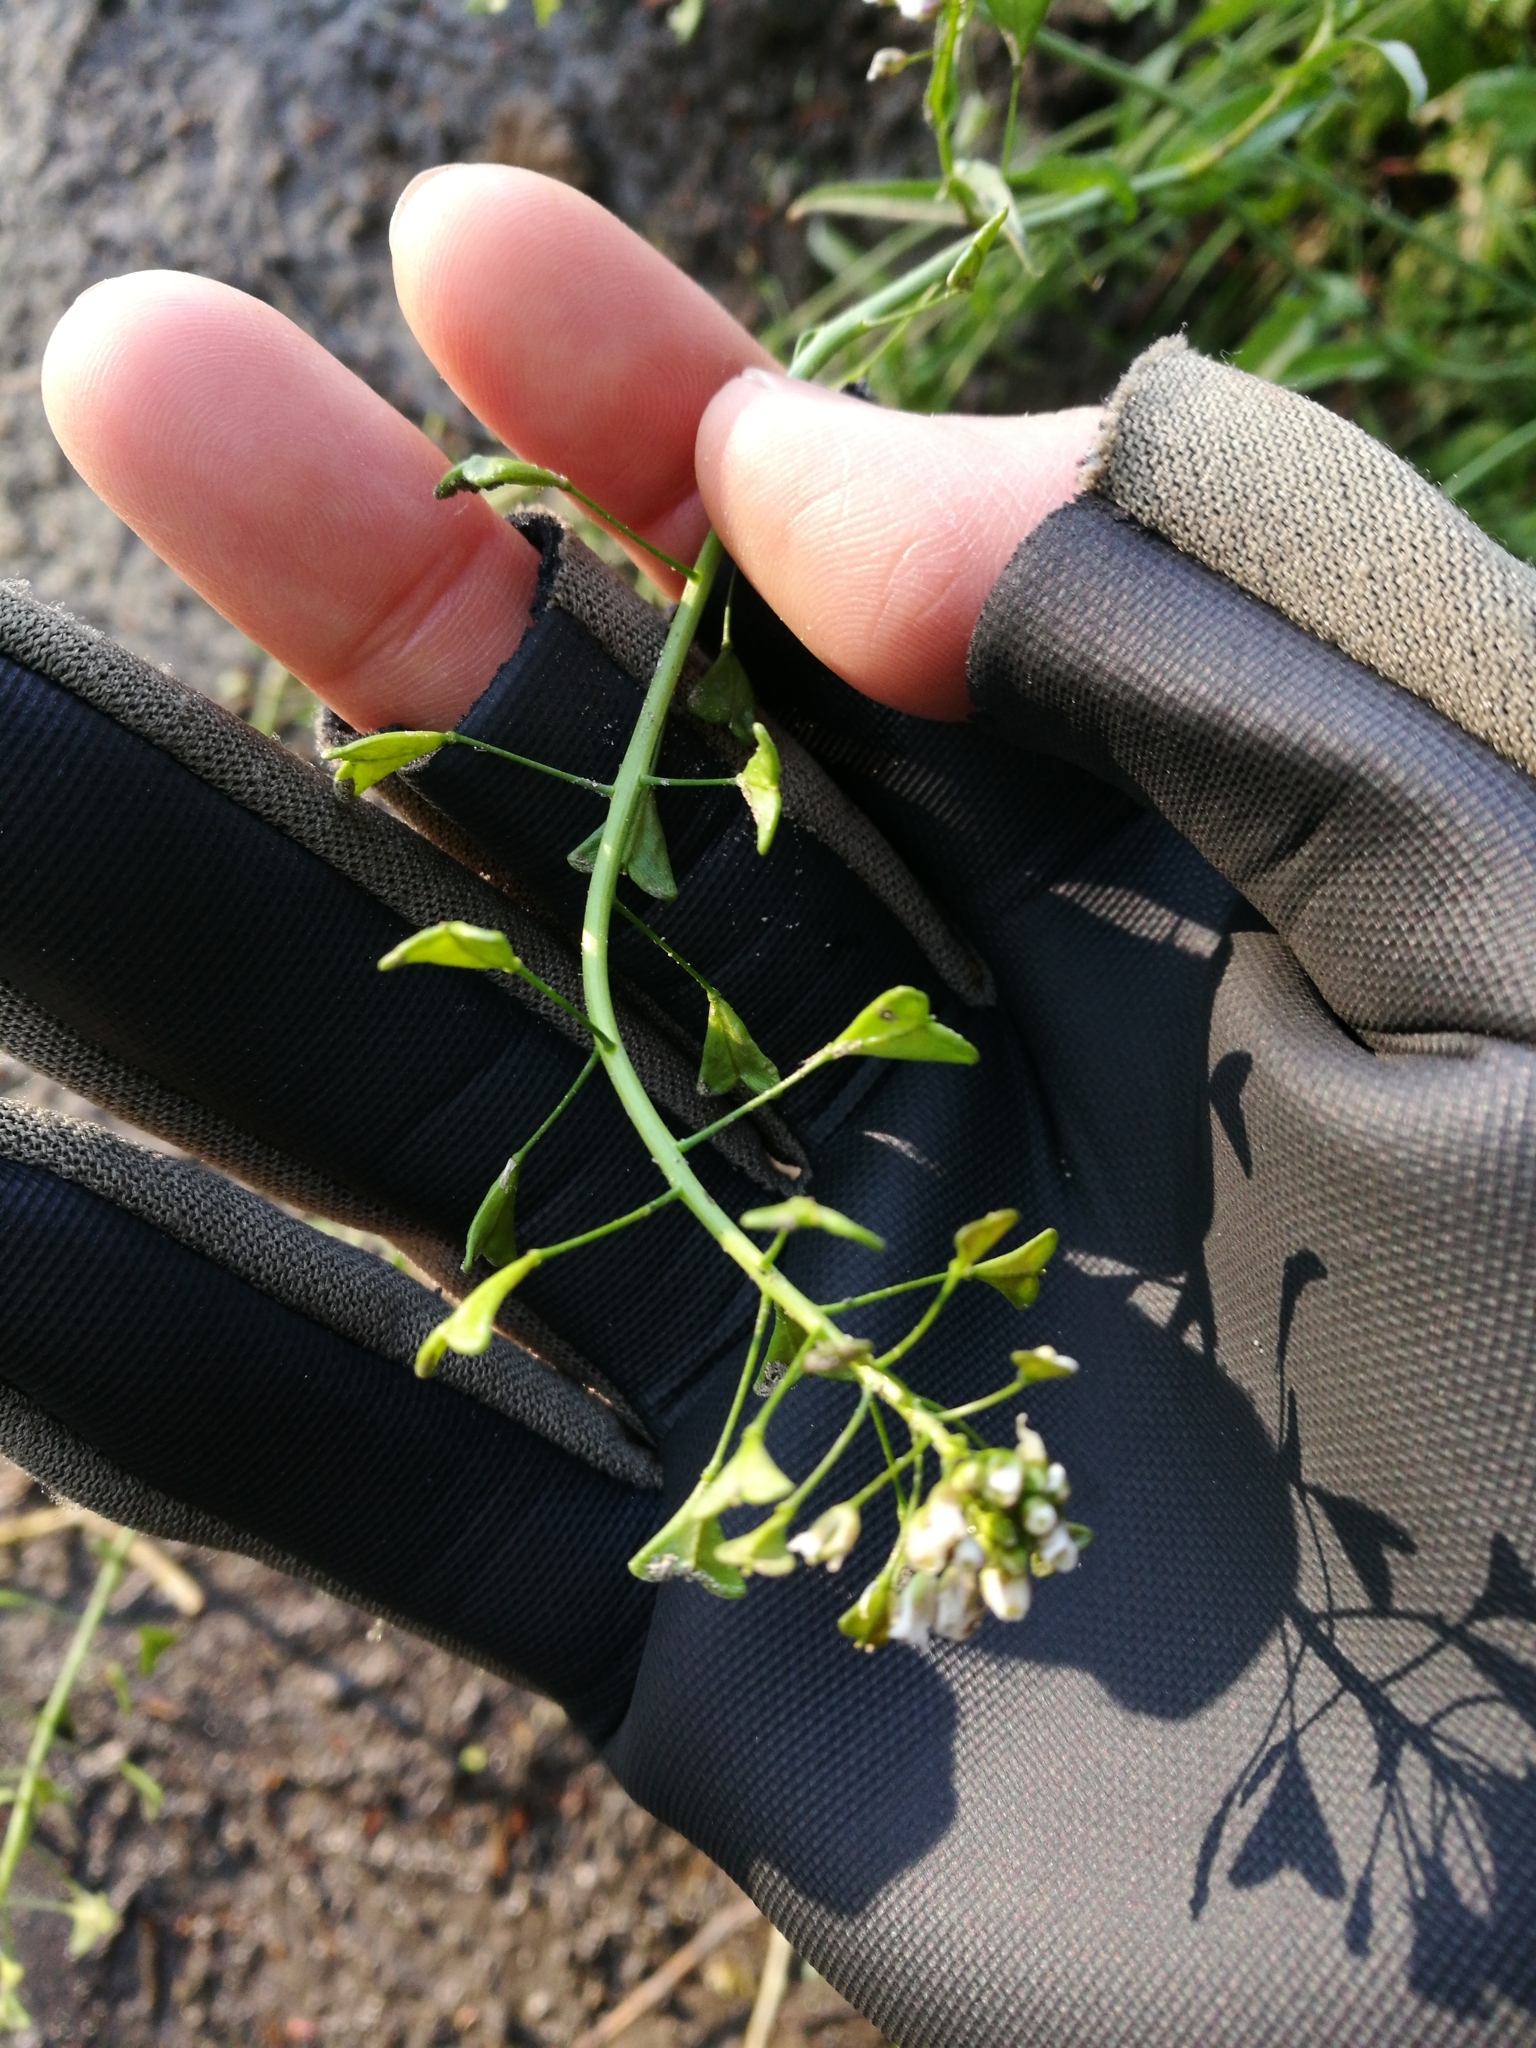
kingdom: Plantae
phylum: Tracheophyta
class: Magnoliopsida
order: Brassicales
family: Brassicaceae
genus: Capsella
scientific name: Capsella bursa-pastoris
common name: Shepherd's purse
